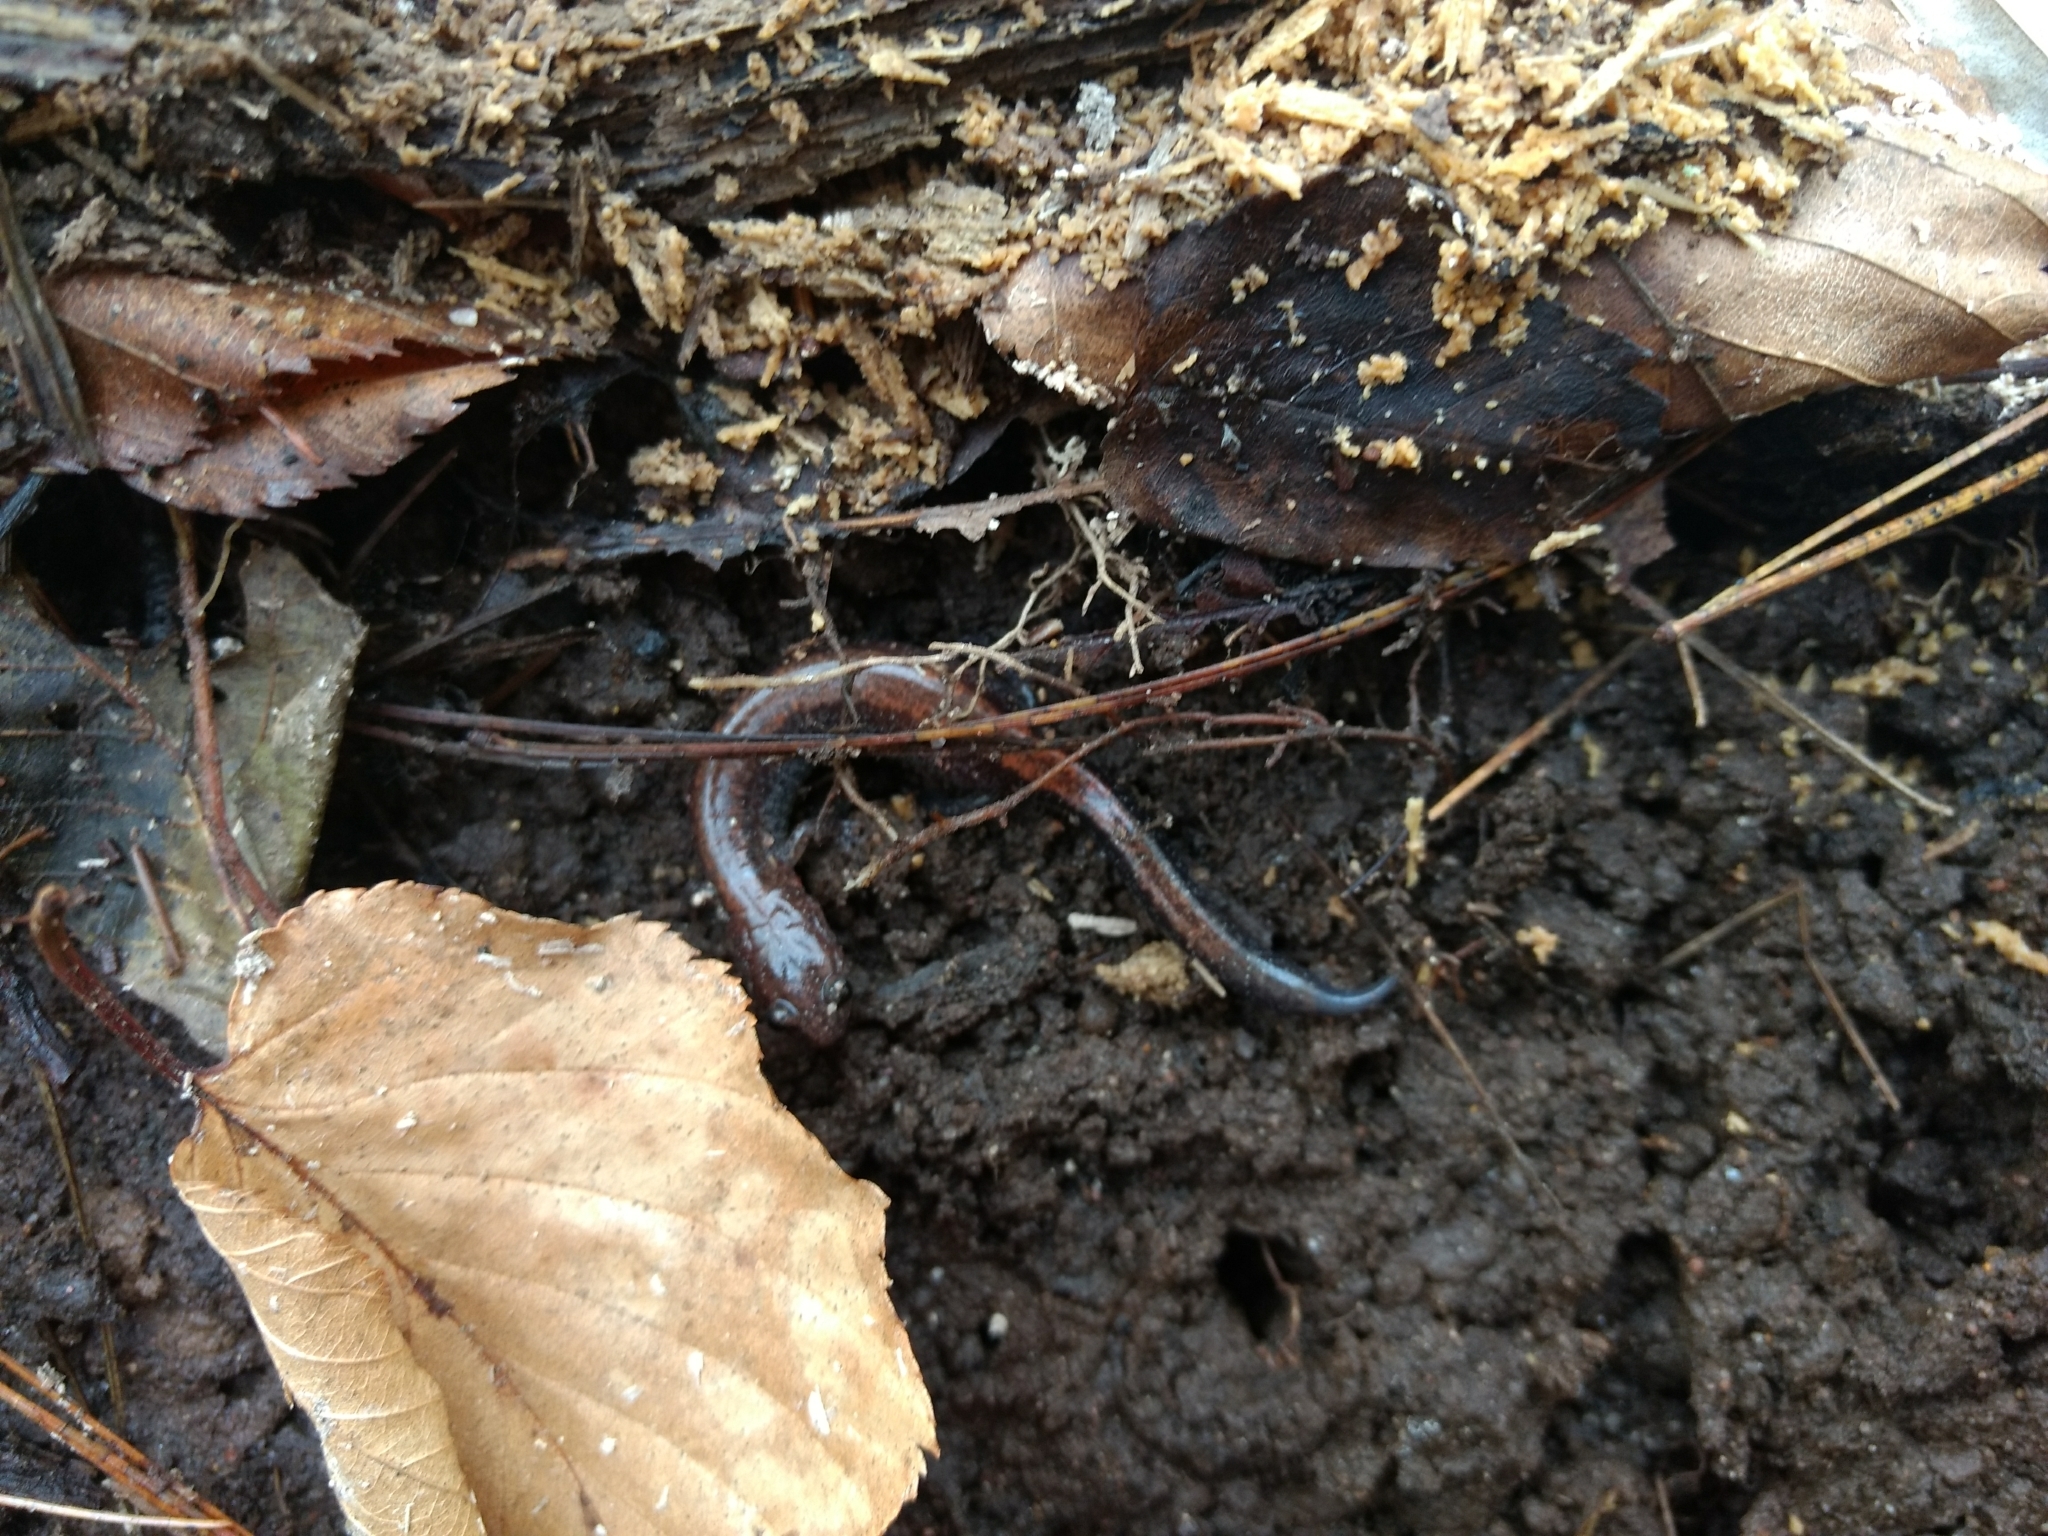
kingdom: Animalia
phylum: Chordata
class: Amphibia
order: Caudata
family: Plethodontidae
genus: Plethodon
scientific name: Plethodon cinereus
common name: Redback salamander
